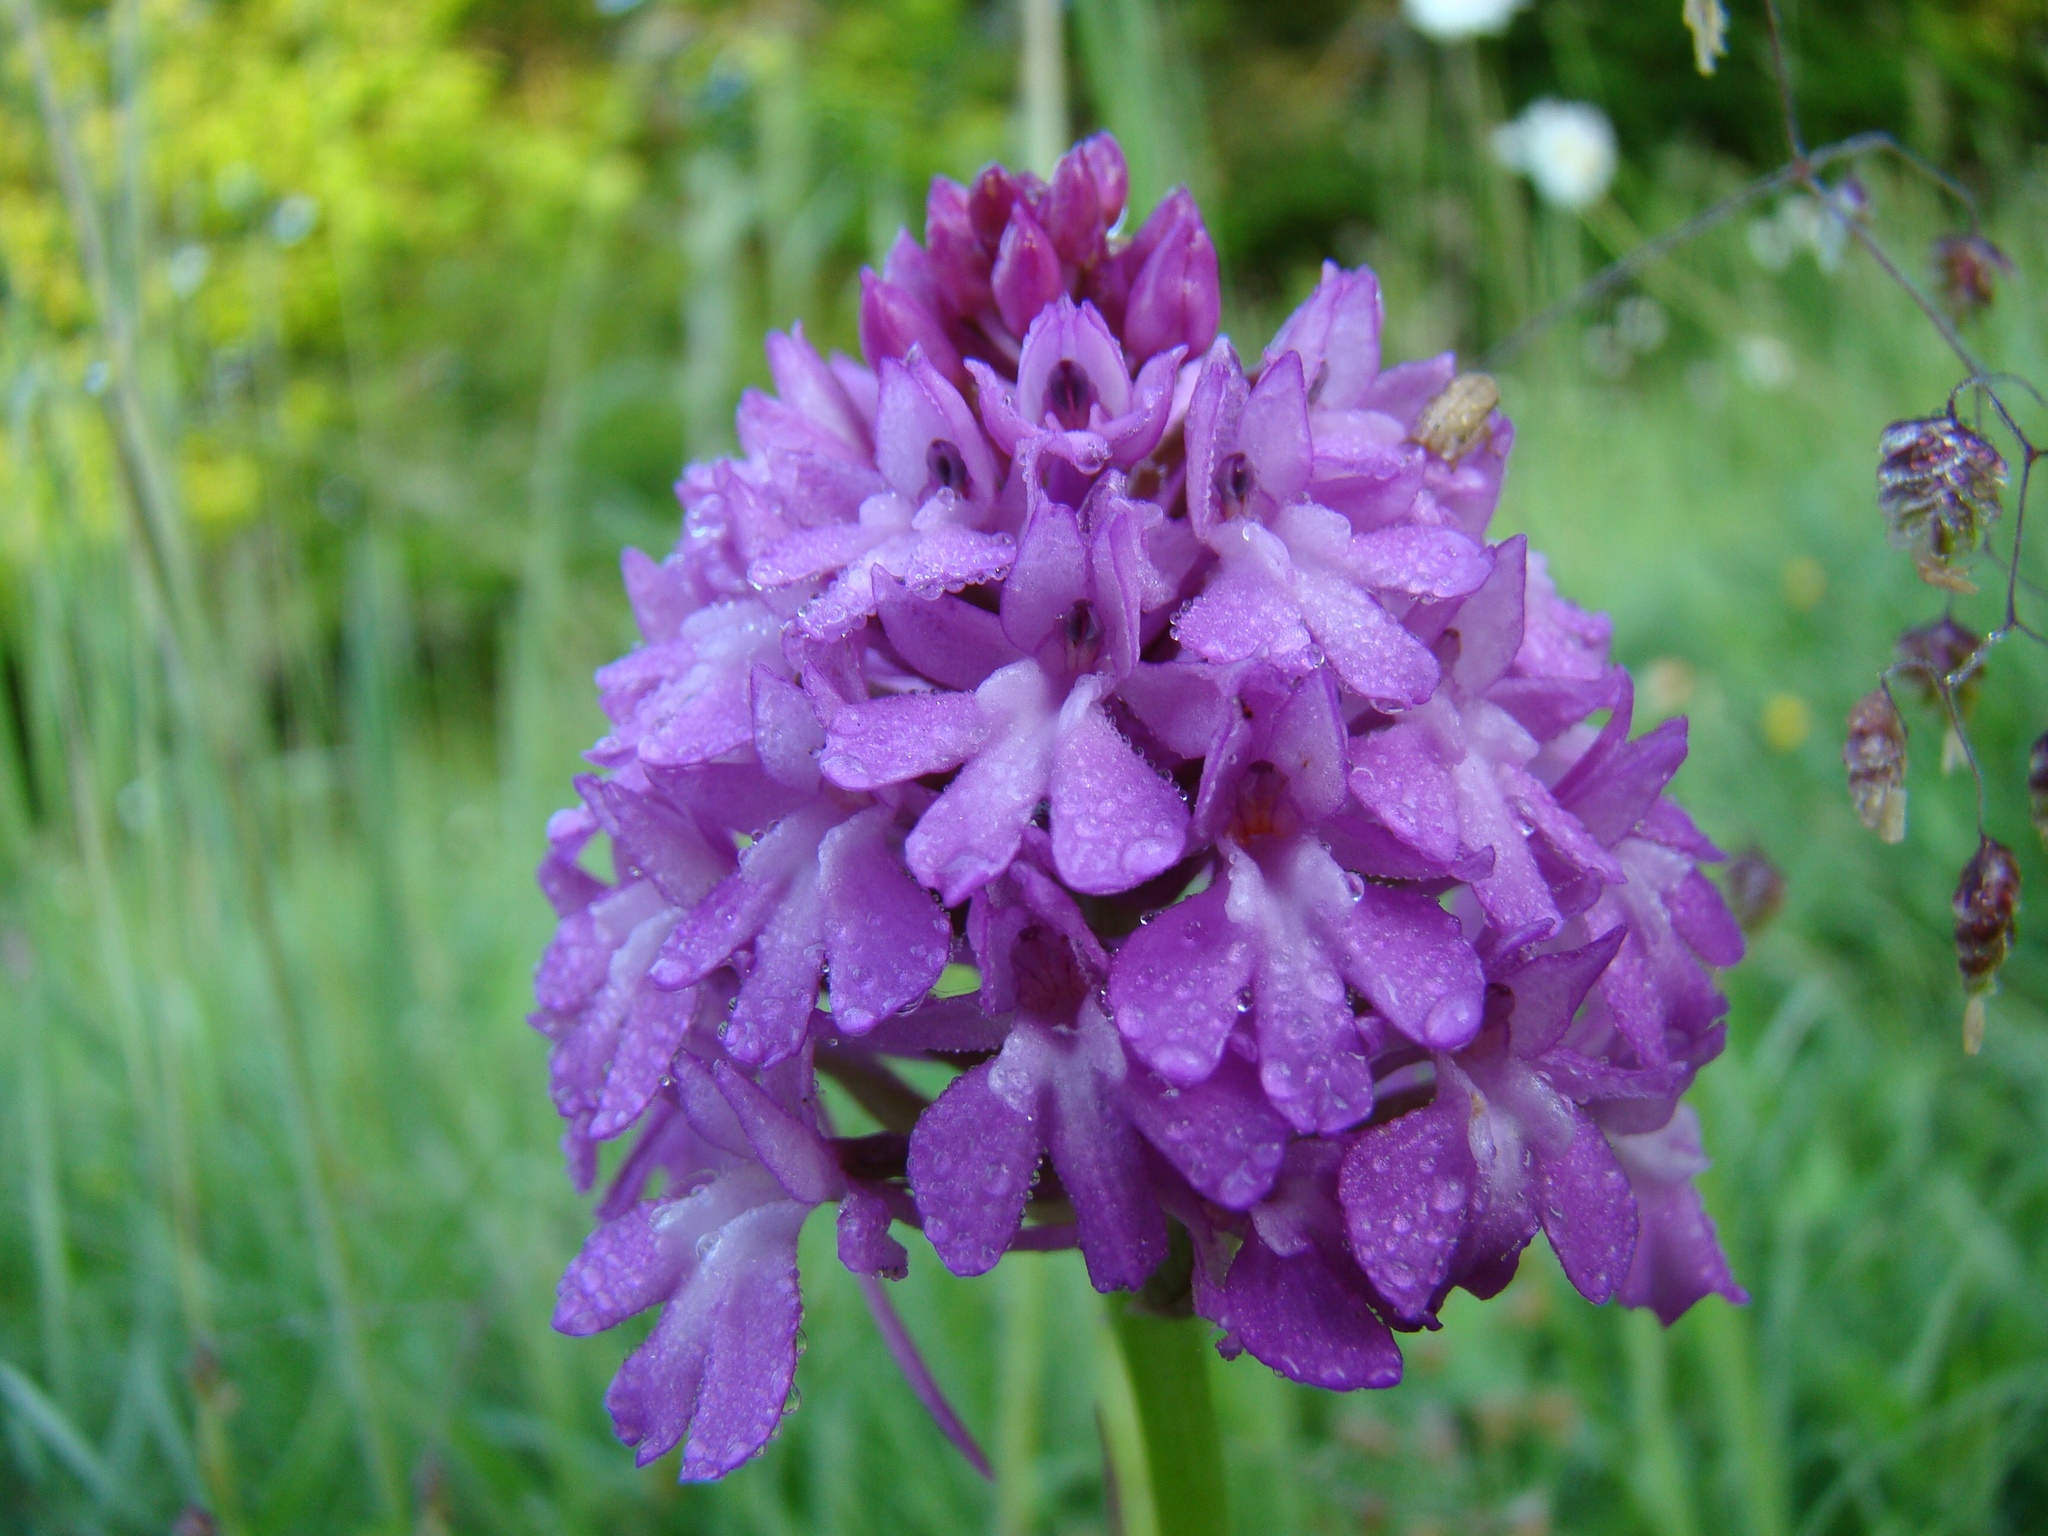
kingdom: Plantae
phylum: Tracheophyta
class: Liliopsida
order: Asparagales
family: Orchidaceae
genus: Anacamptis
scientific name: Anacamptis pyramidalis
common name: Pyramidal orchid
